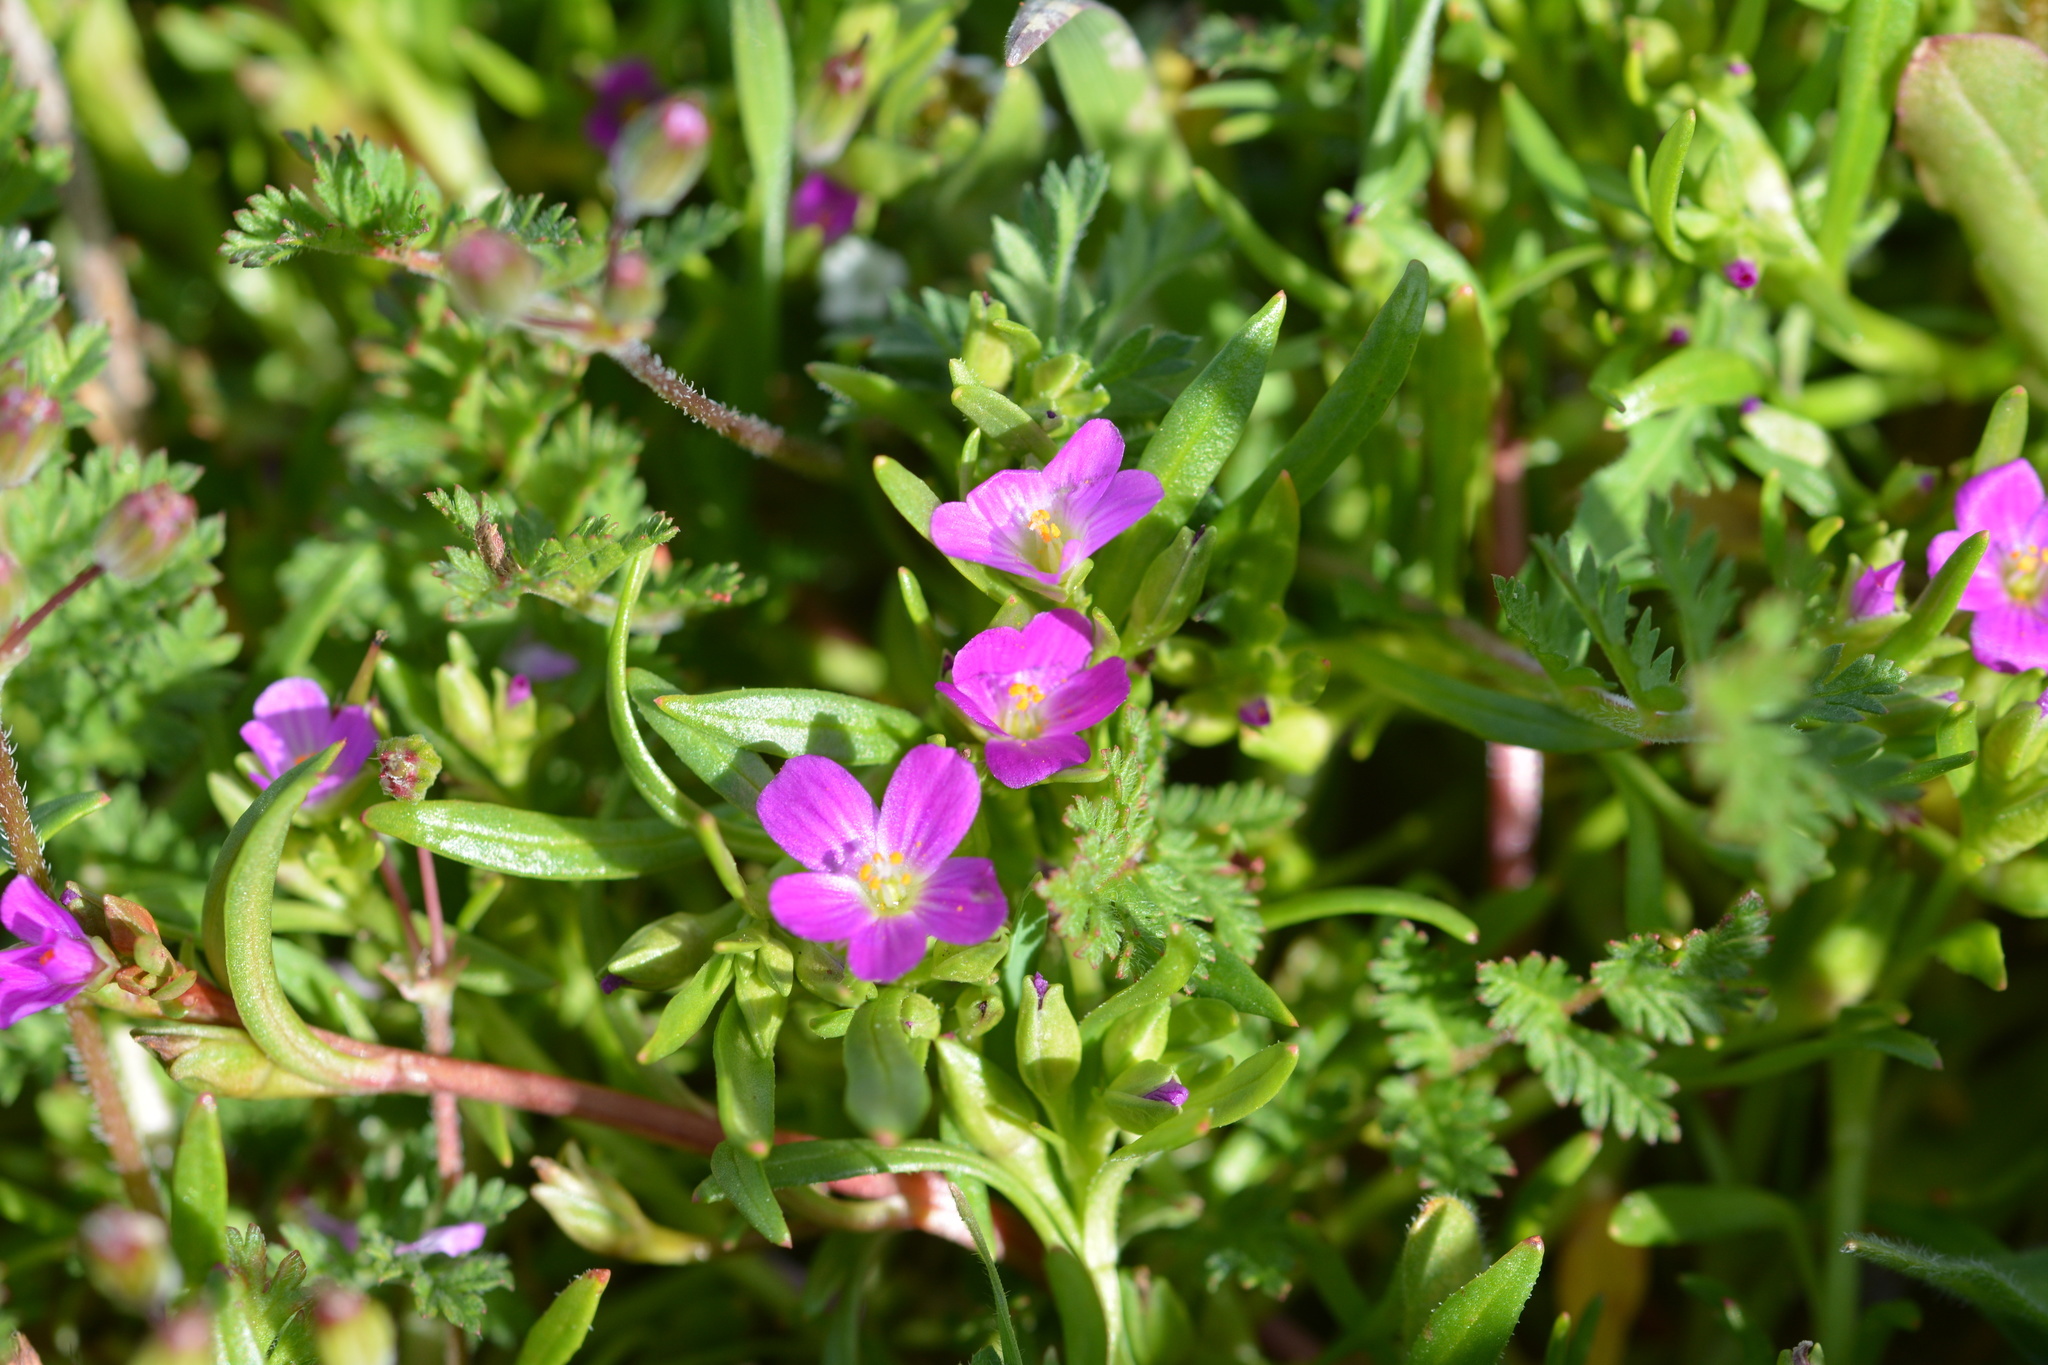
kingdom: Plantae
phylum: Tracheophyta
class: Magnoliopsida
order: Caryophyllales
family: Montiaceae
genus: Calandrinia
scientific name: Calandrinia menziesii
